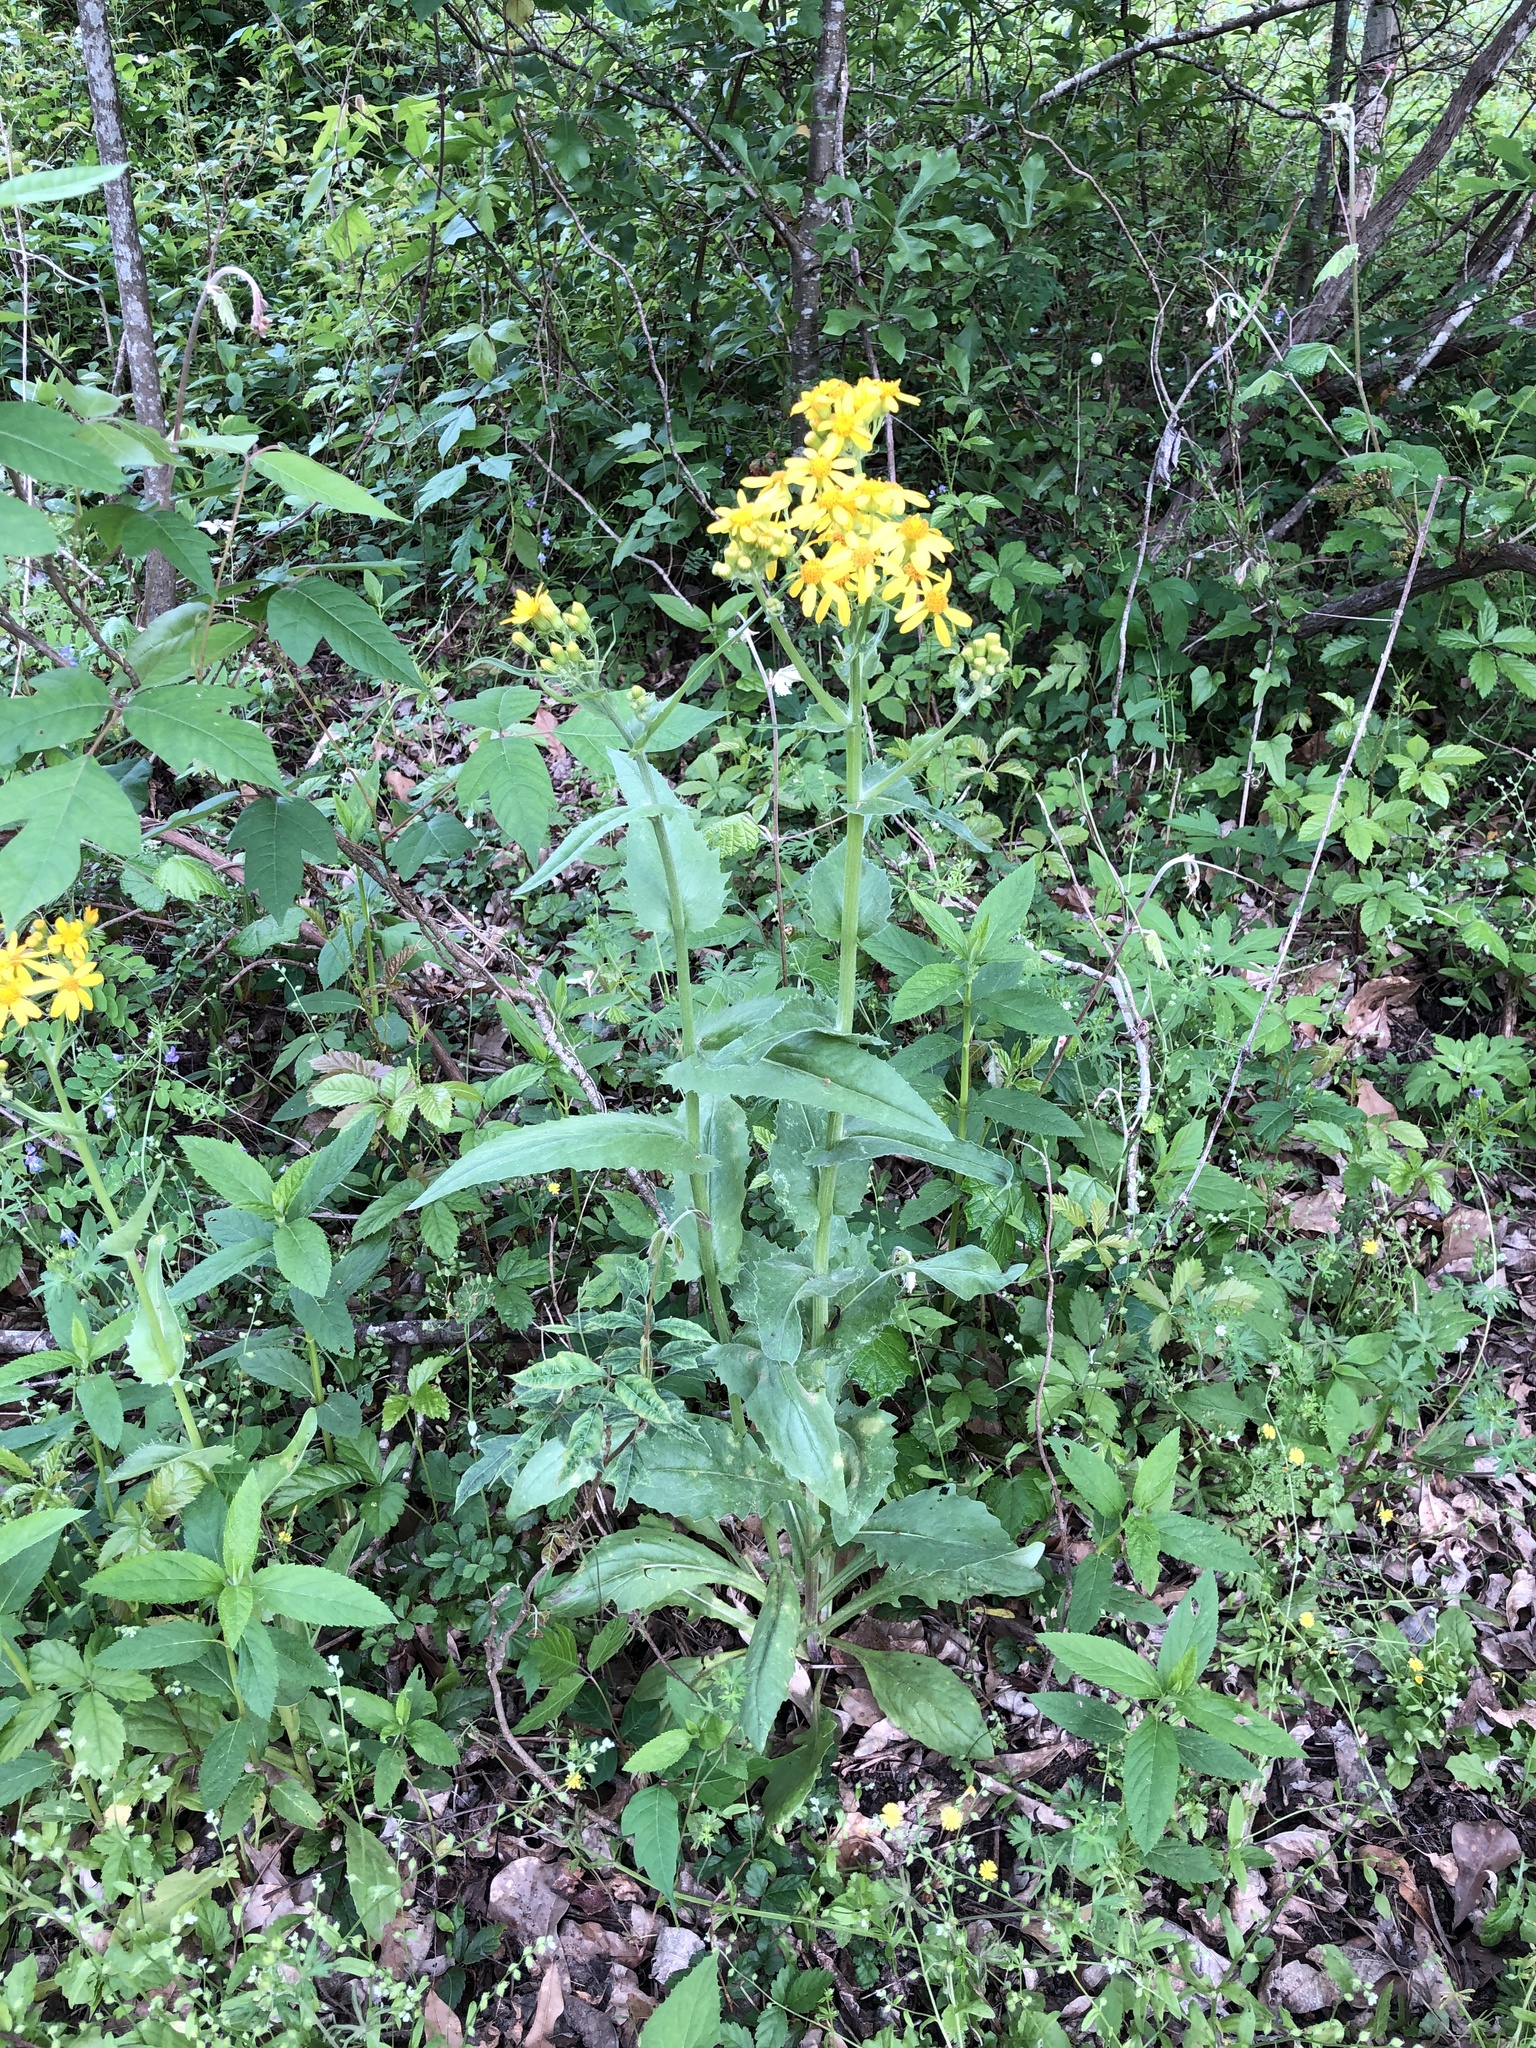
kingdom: Plantae
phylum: Tracheophyta
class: Magnoliopsida
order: Asterales
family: Asteraceae
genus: Senecio
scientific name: Senecio ampullaceus
